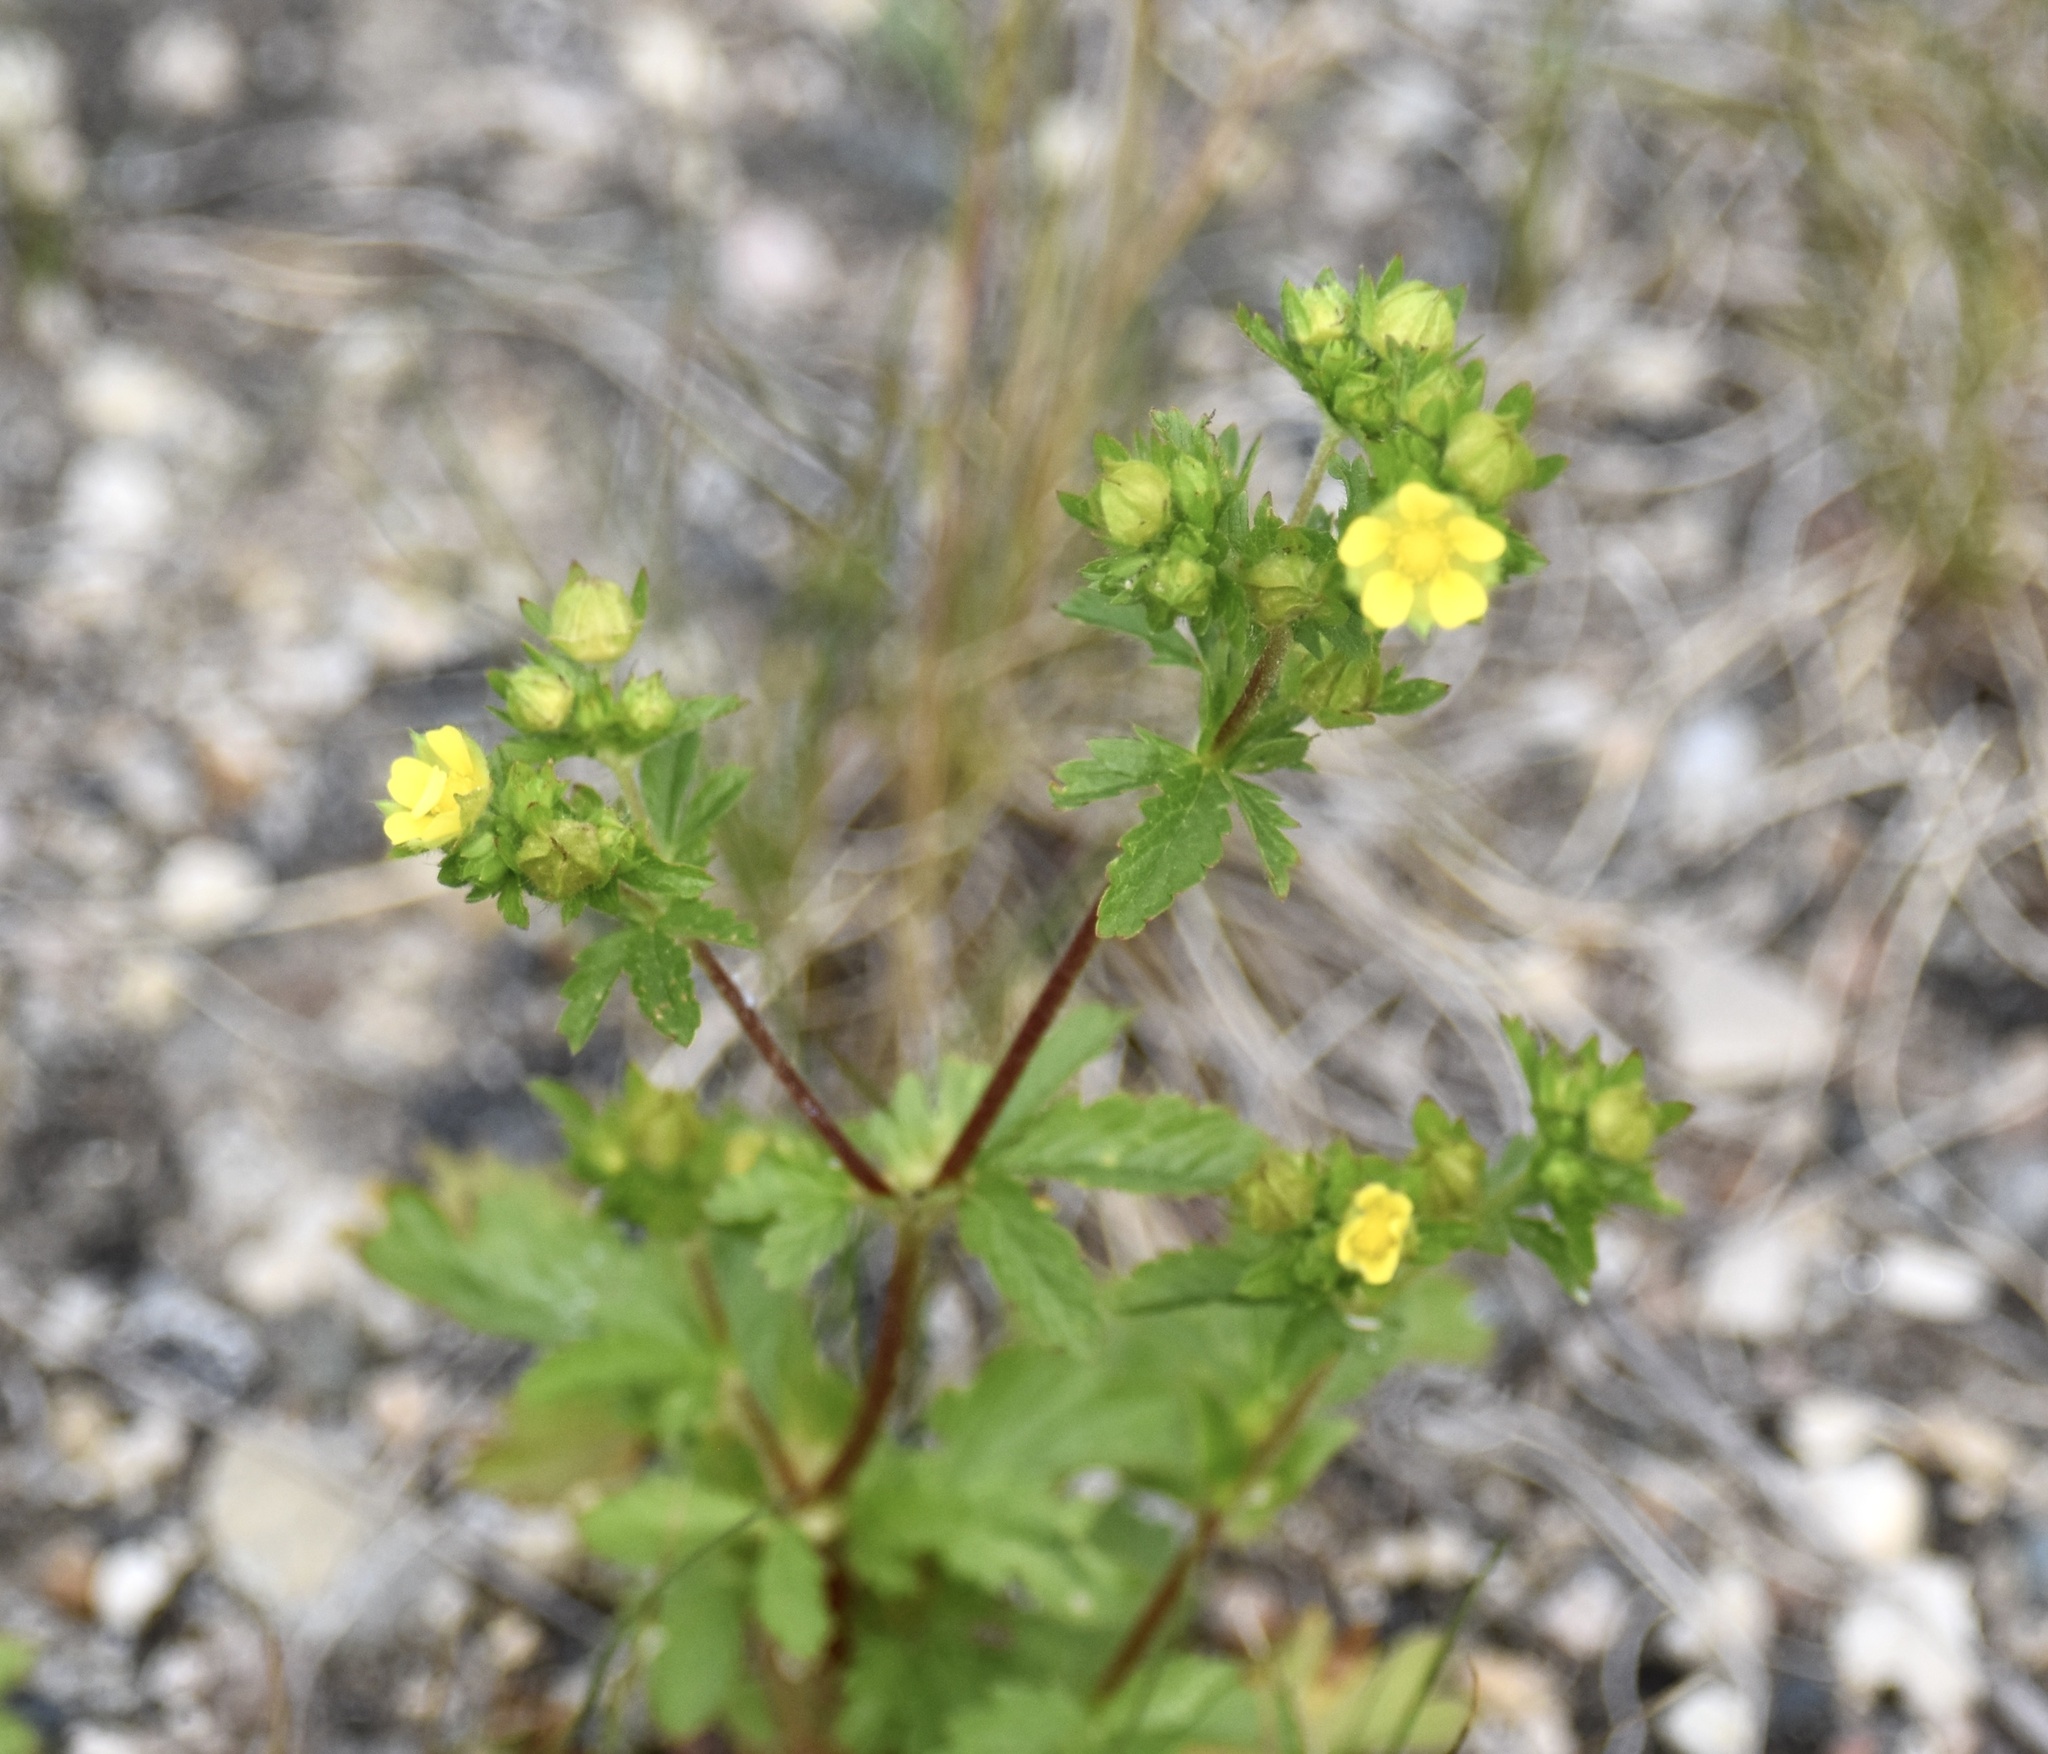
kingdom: Plantae
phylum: Tracheophyta
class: Magnoliopsida
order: Rosales
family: Rosaceae
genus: Potentilla
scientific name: Potentilla norvegica
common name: Ternate-leaved cinquefoil
